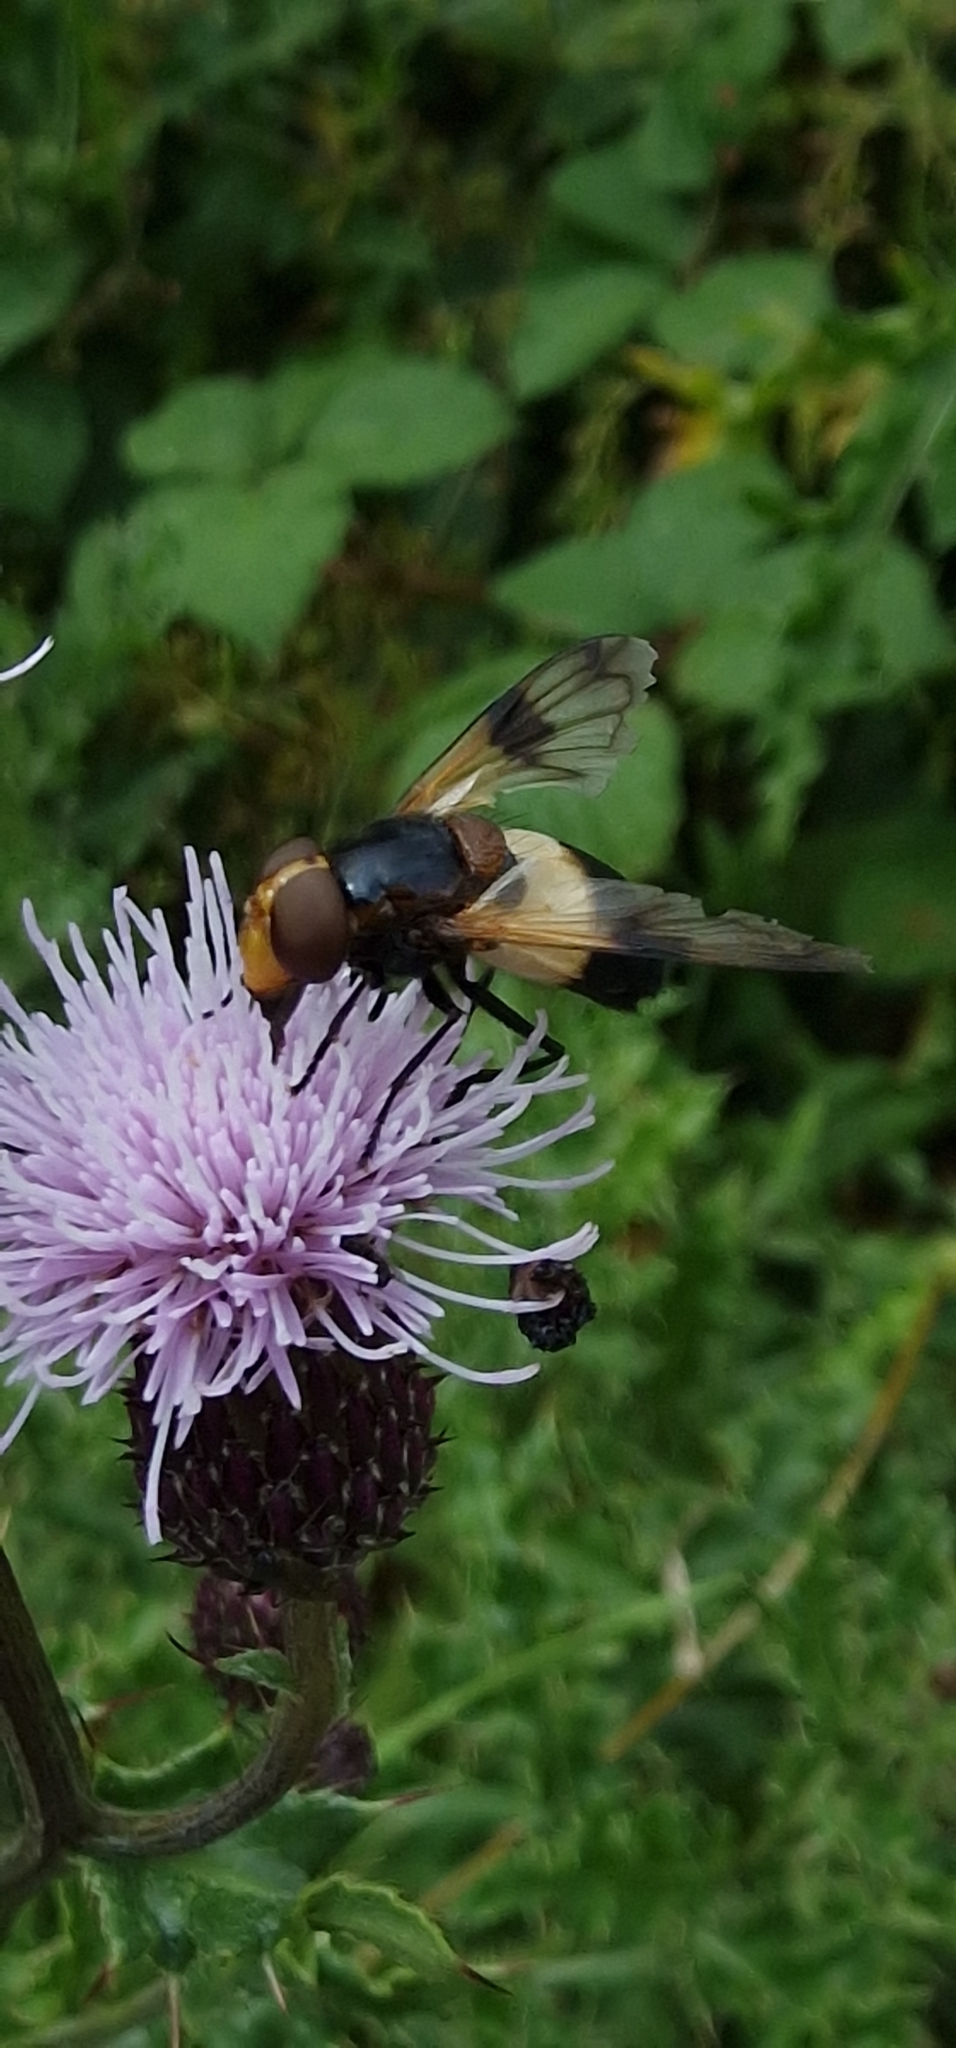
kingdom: Animalia
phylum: Arthropoda
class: Insecta
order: Diptera
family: Syrphidae
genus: Volucella
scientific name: Volucella pellucens
